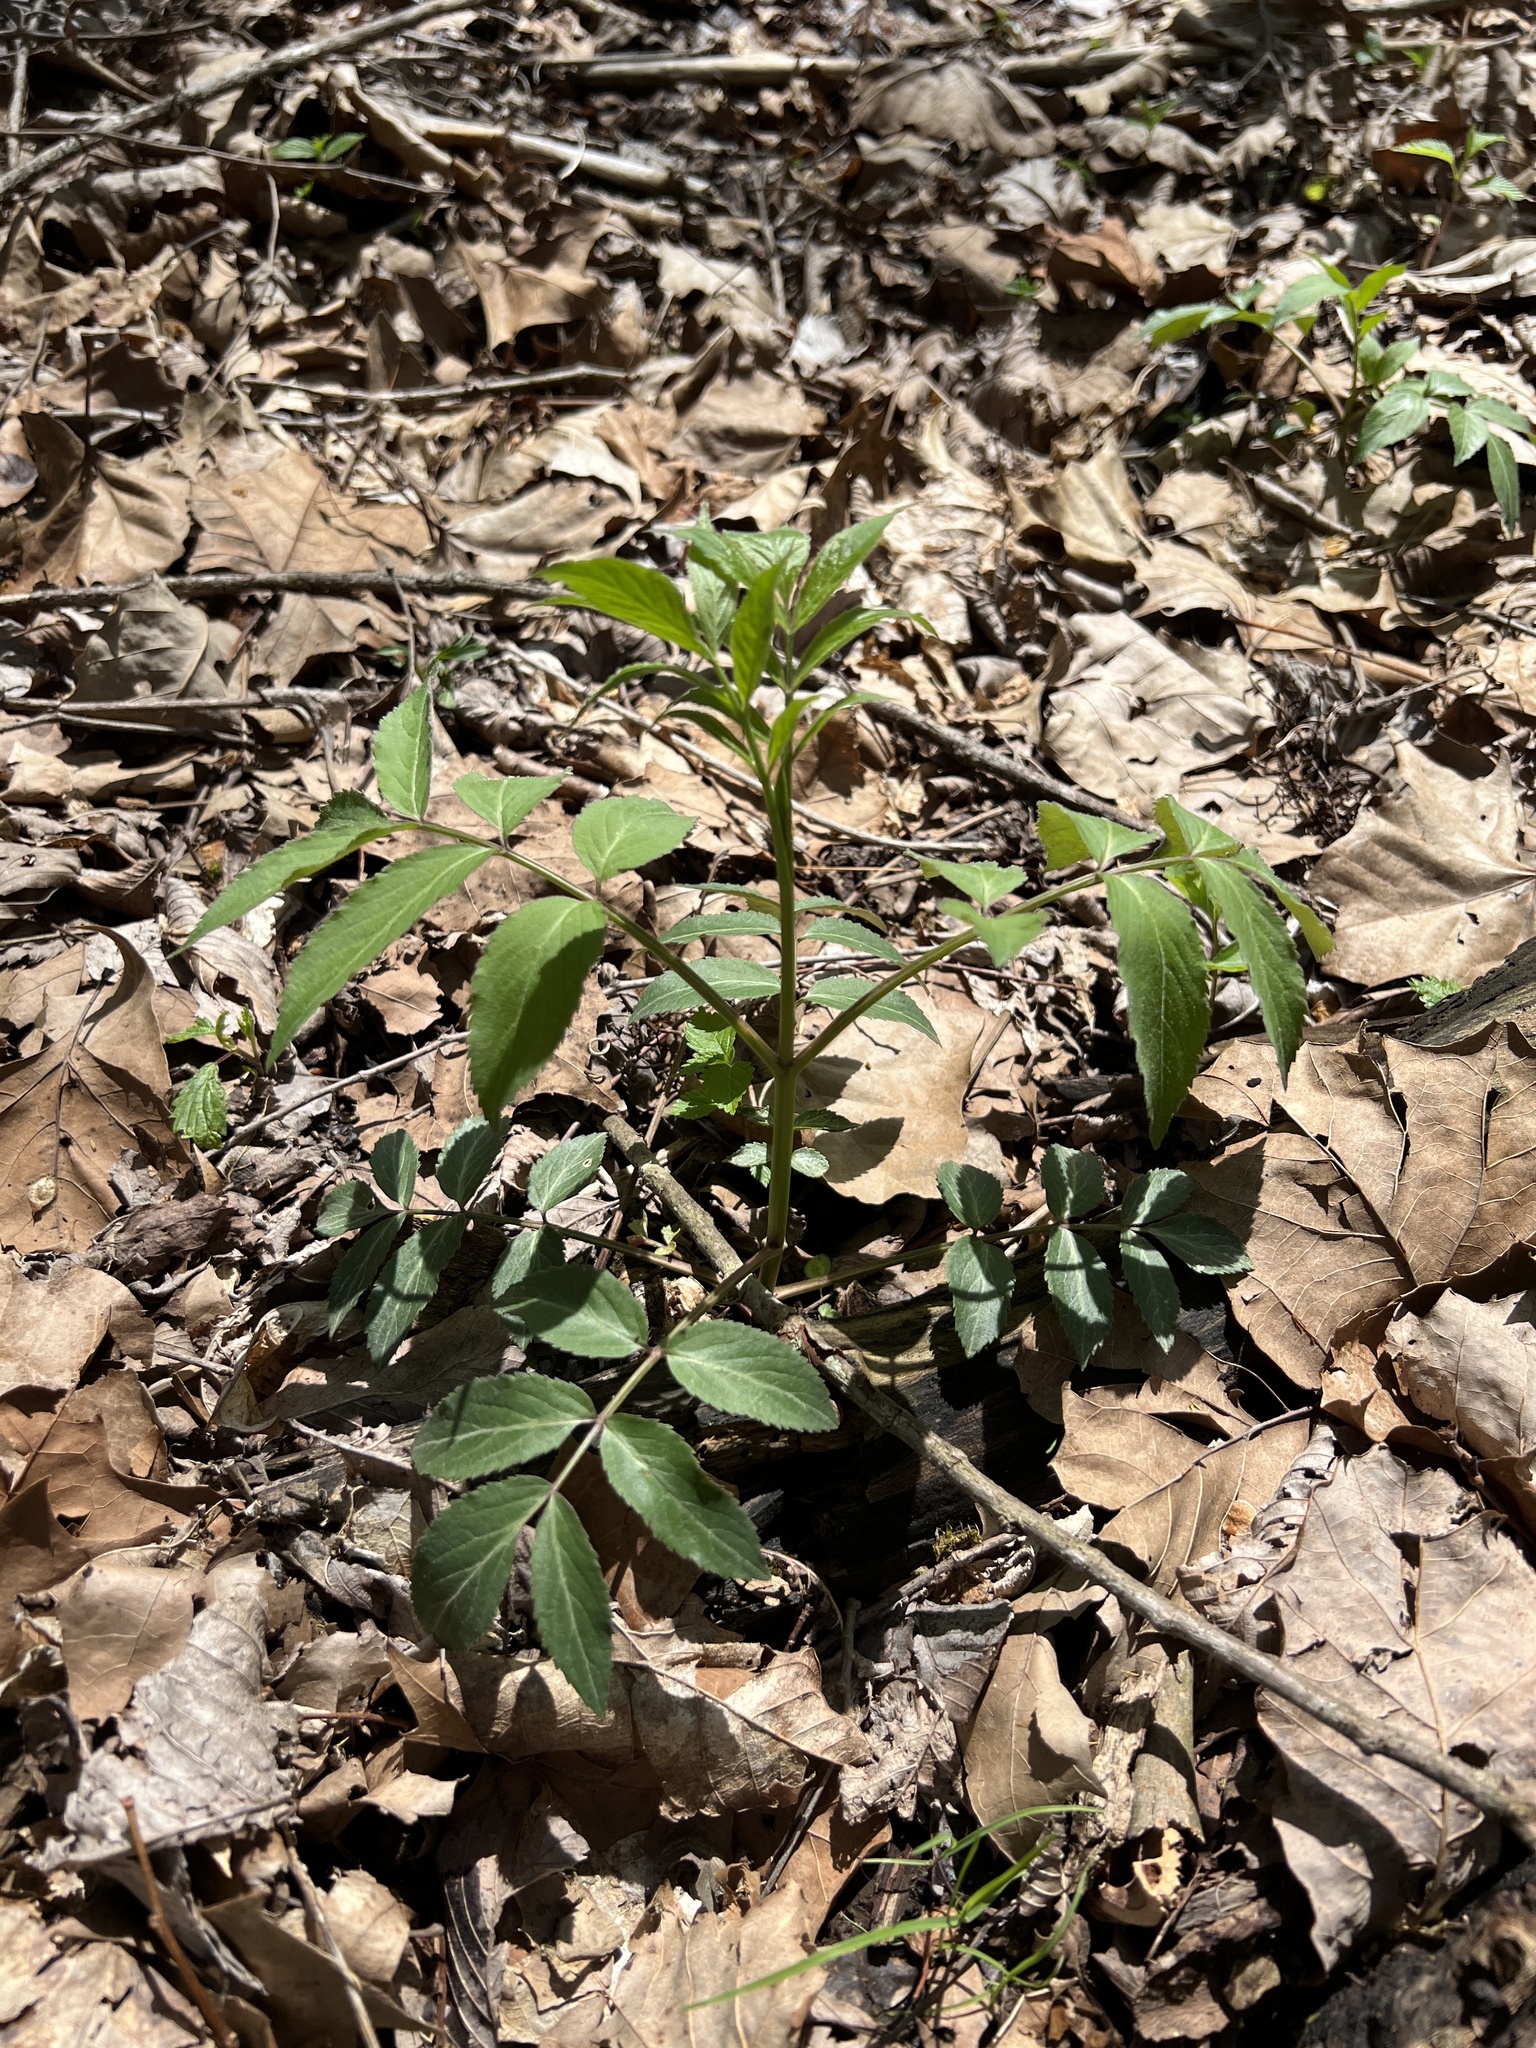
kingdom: Plantae
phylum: Tracheophyta
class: Magnoliopsida
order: Dipsacales
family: Viburnaceae
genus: Sambucus
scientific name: Sambucus canadensis
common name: American elder
